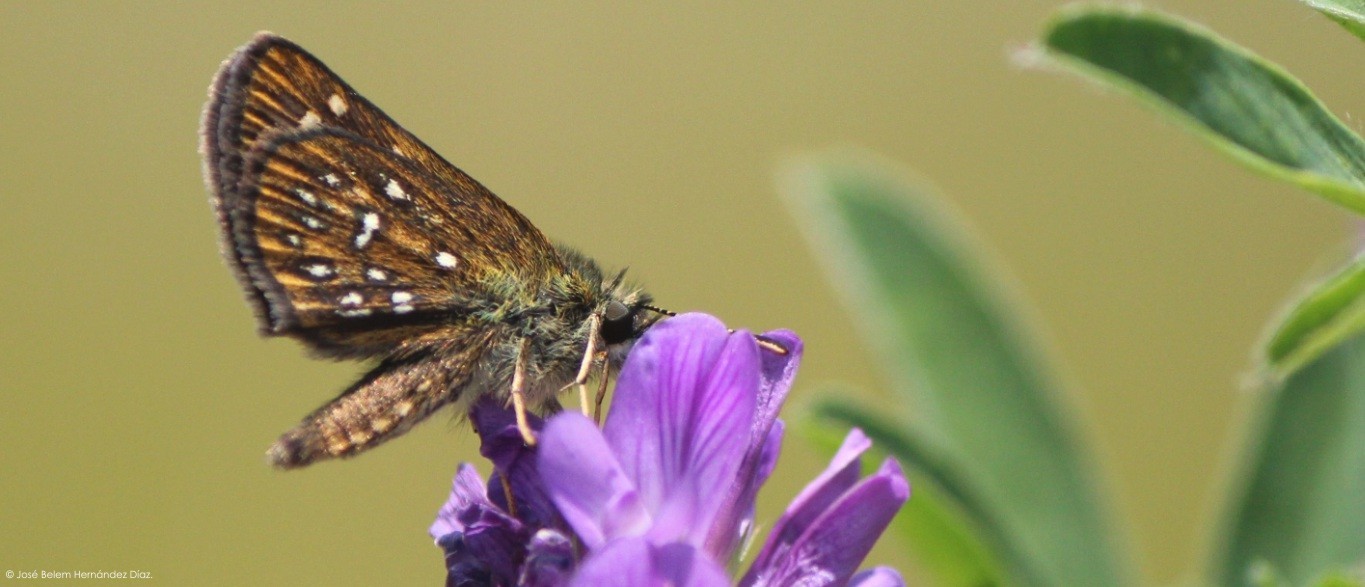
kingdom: Animalia
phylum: Arthropoda
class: Insecta
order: Lepidoptera
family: Hesperiidae
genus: Piruna
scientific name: Piruna aea
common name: Many-spotted skipperling
